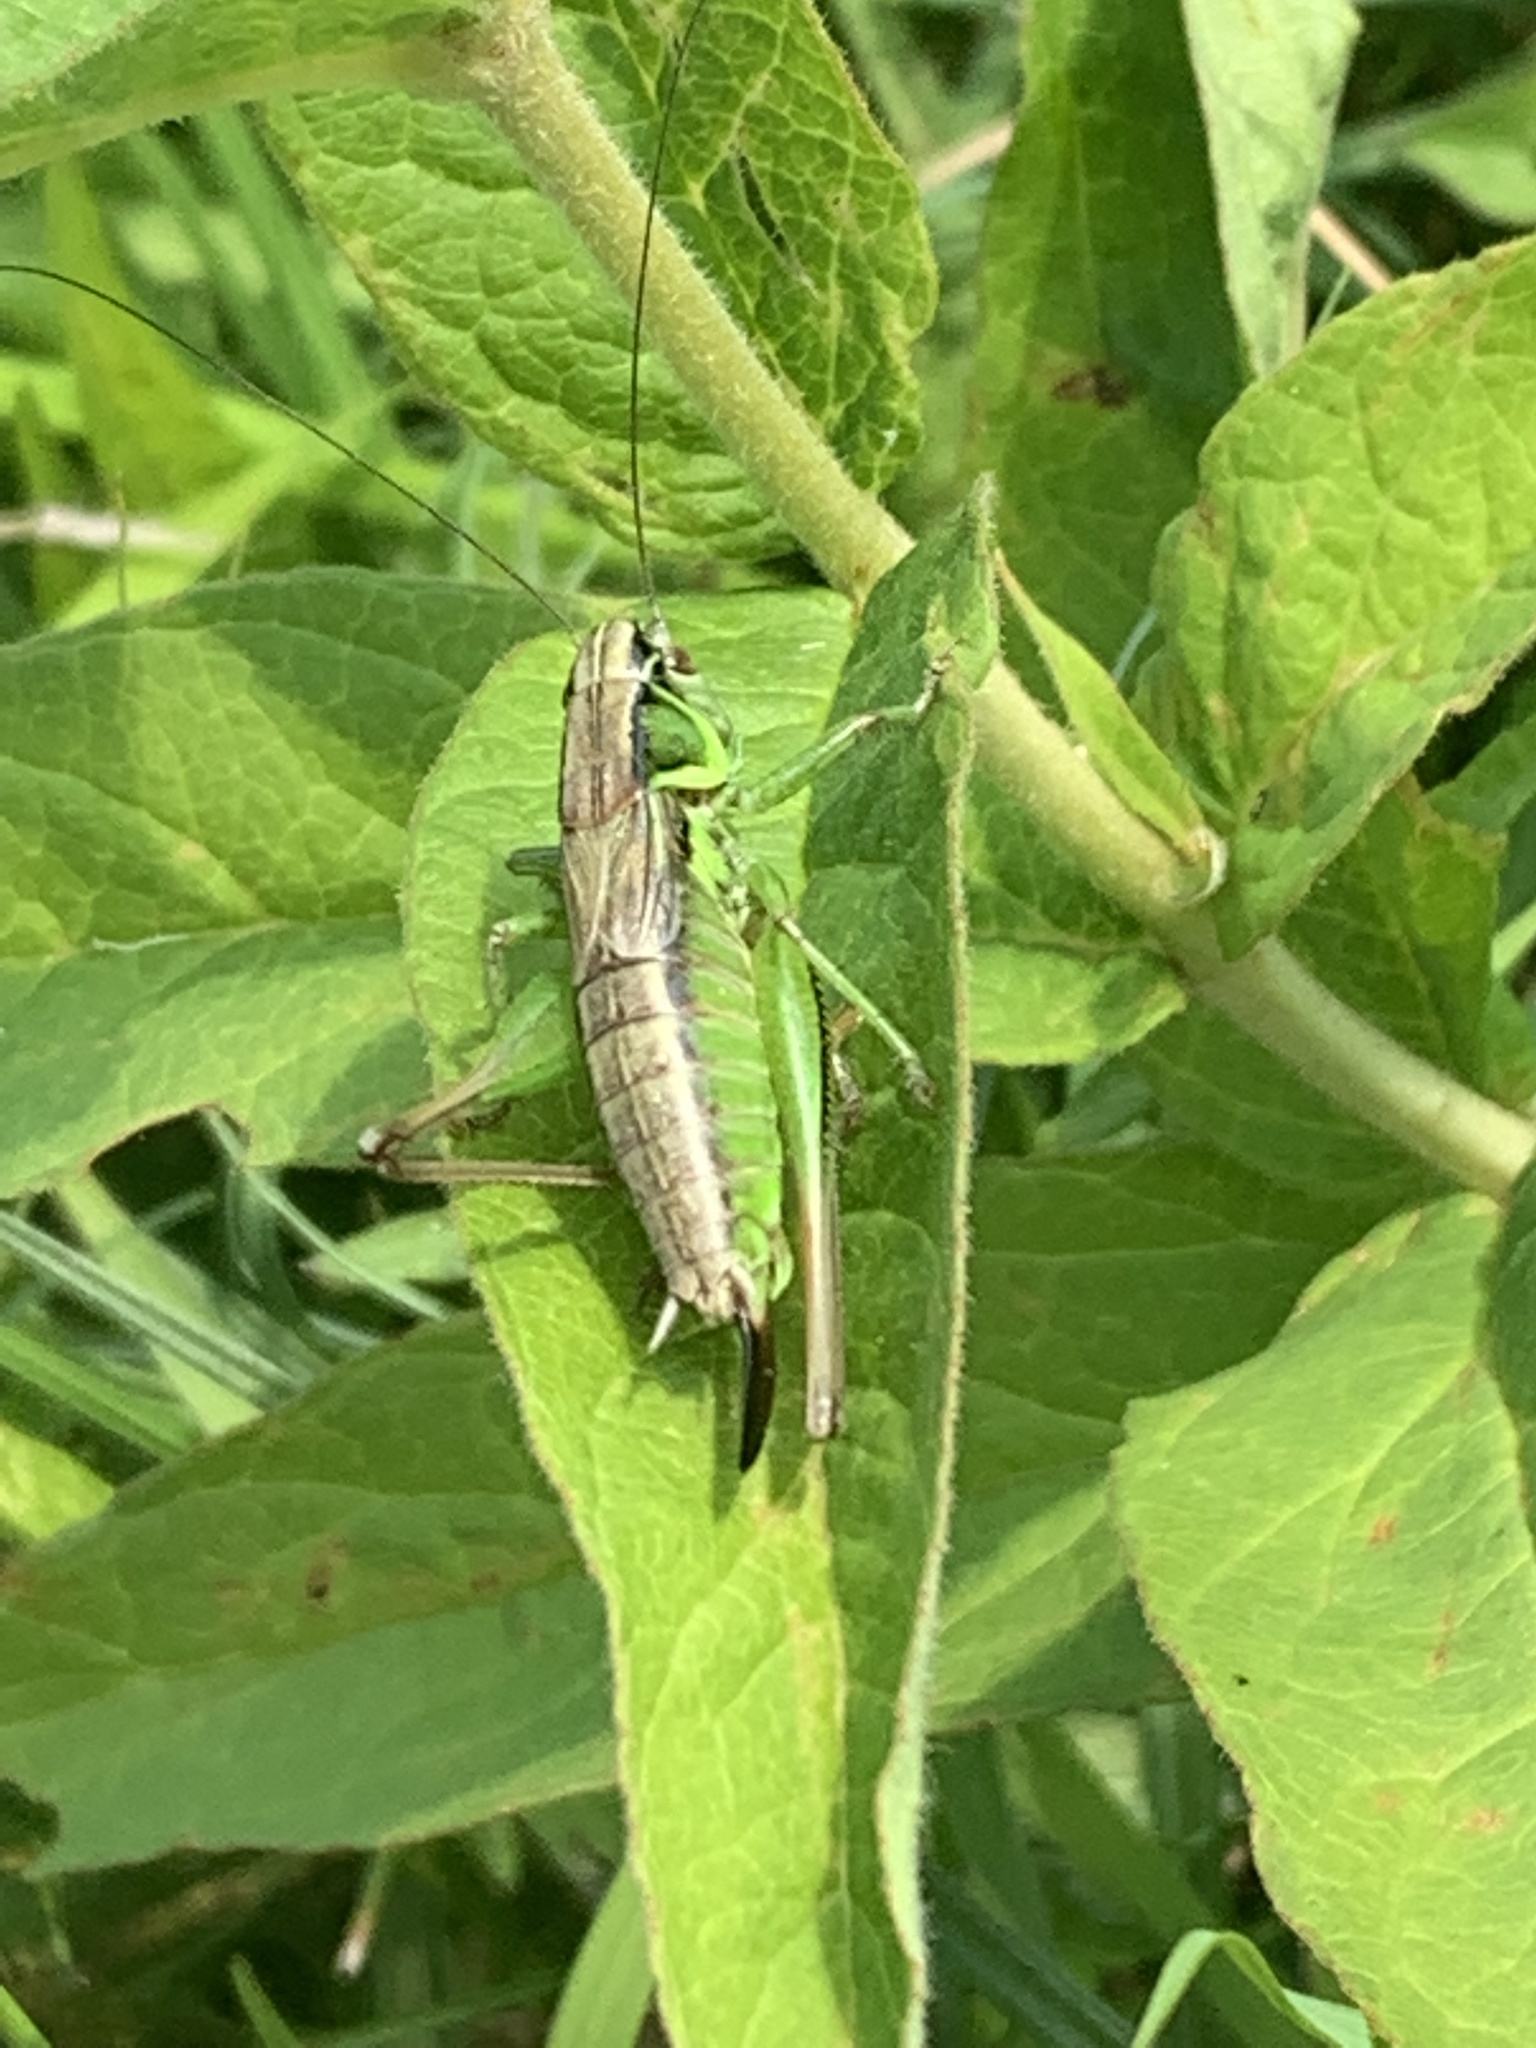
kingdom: Animalia
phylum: Arthropoda
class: Insecta
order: Orthoptera
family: Tettigoniidae
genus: Roeseliana
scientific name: Roeseliana roeselii
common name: Roesel's bush cricket
